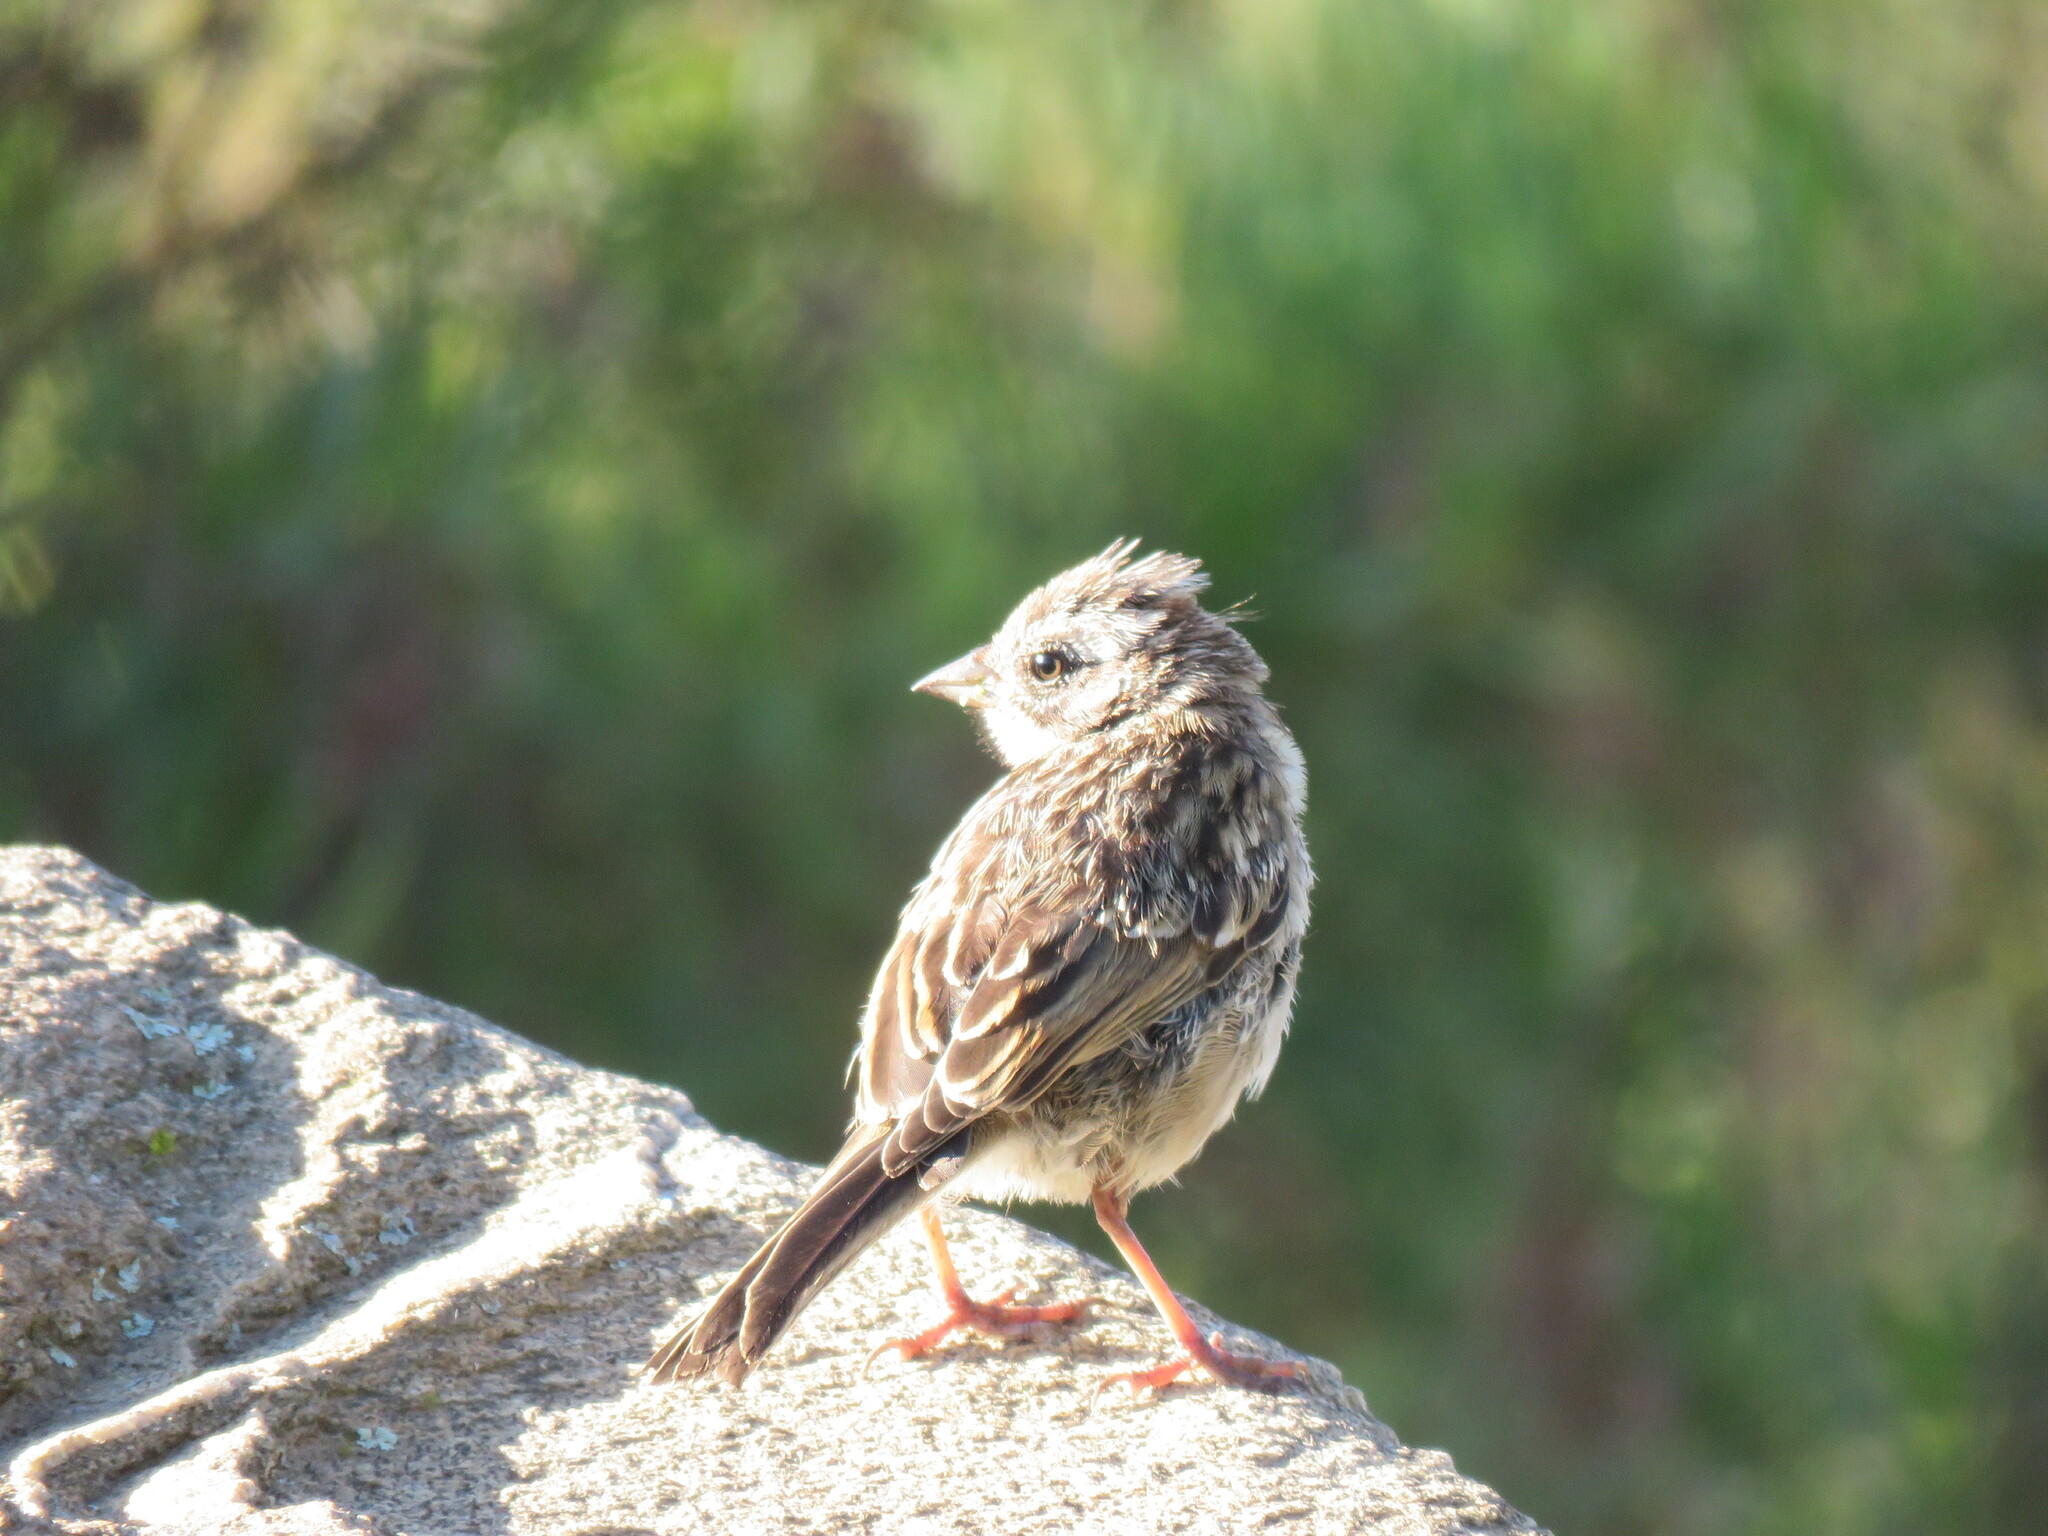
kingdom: Animalia
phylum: Chordata
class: Aves
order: Passeriformes
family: Passerellidae
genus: Zonotrichia
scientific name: Zonotrichia capensis
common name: Rufous-collared sparrow
